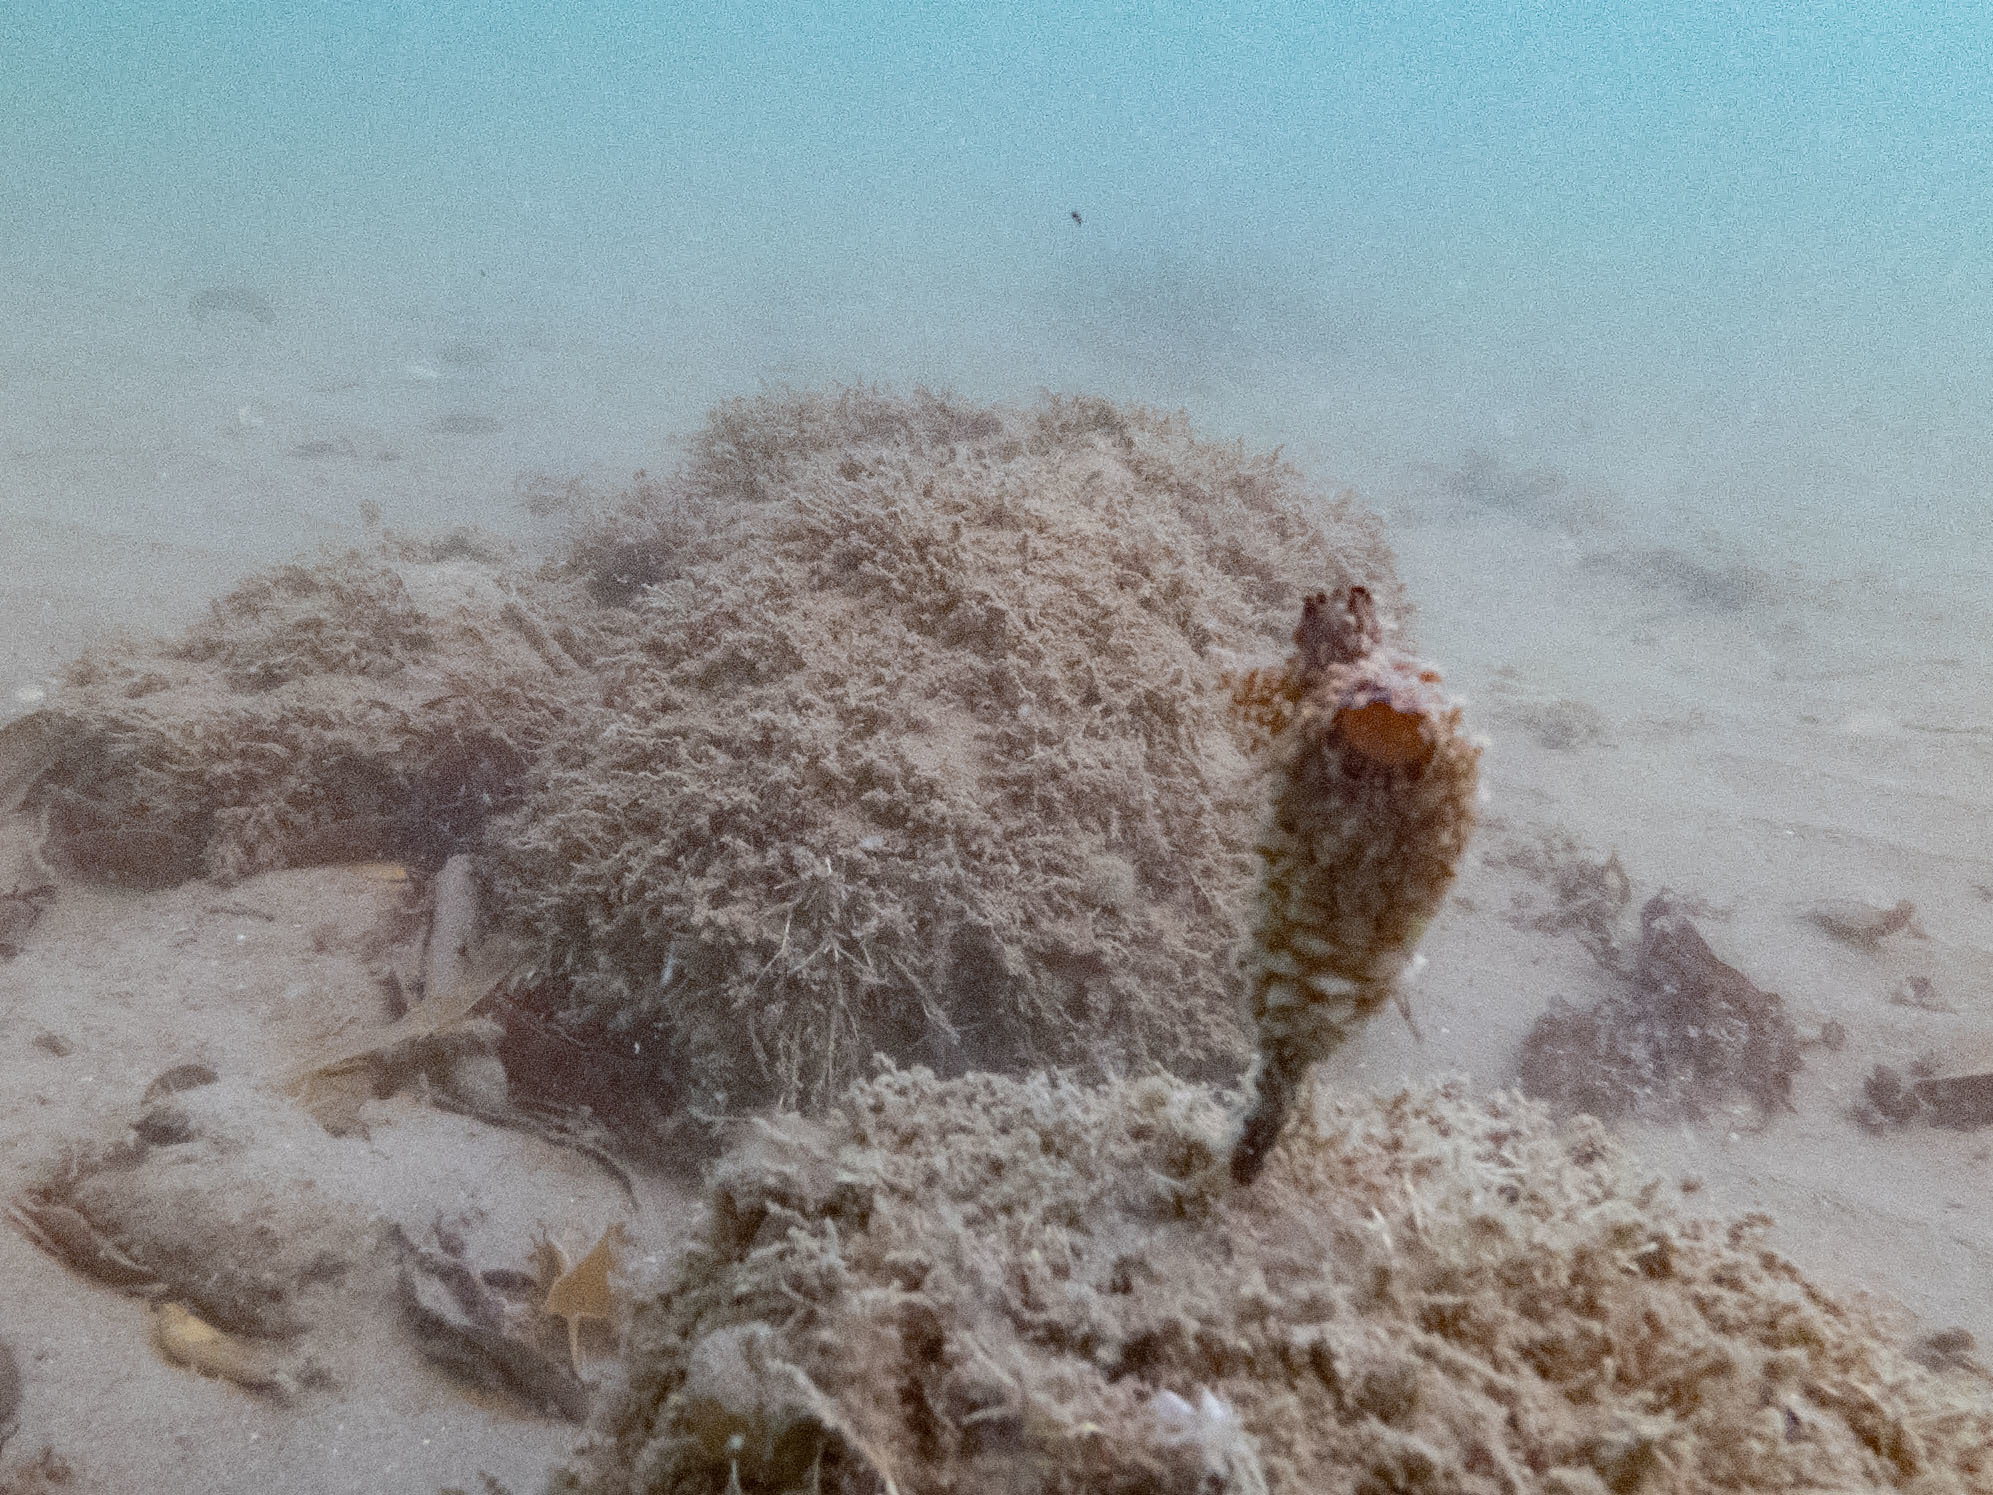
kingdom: Animalia
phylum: Chordata
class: Ascidiacea
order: Stolidobranchia
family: Styelidae
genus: Styela
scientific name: Styela clava
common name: Leathery sea squirt
